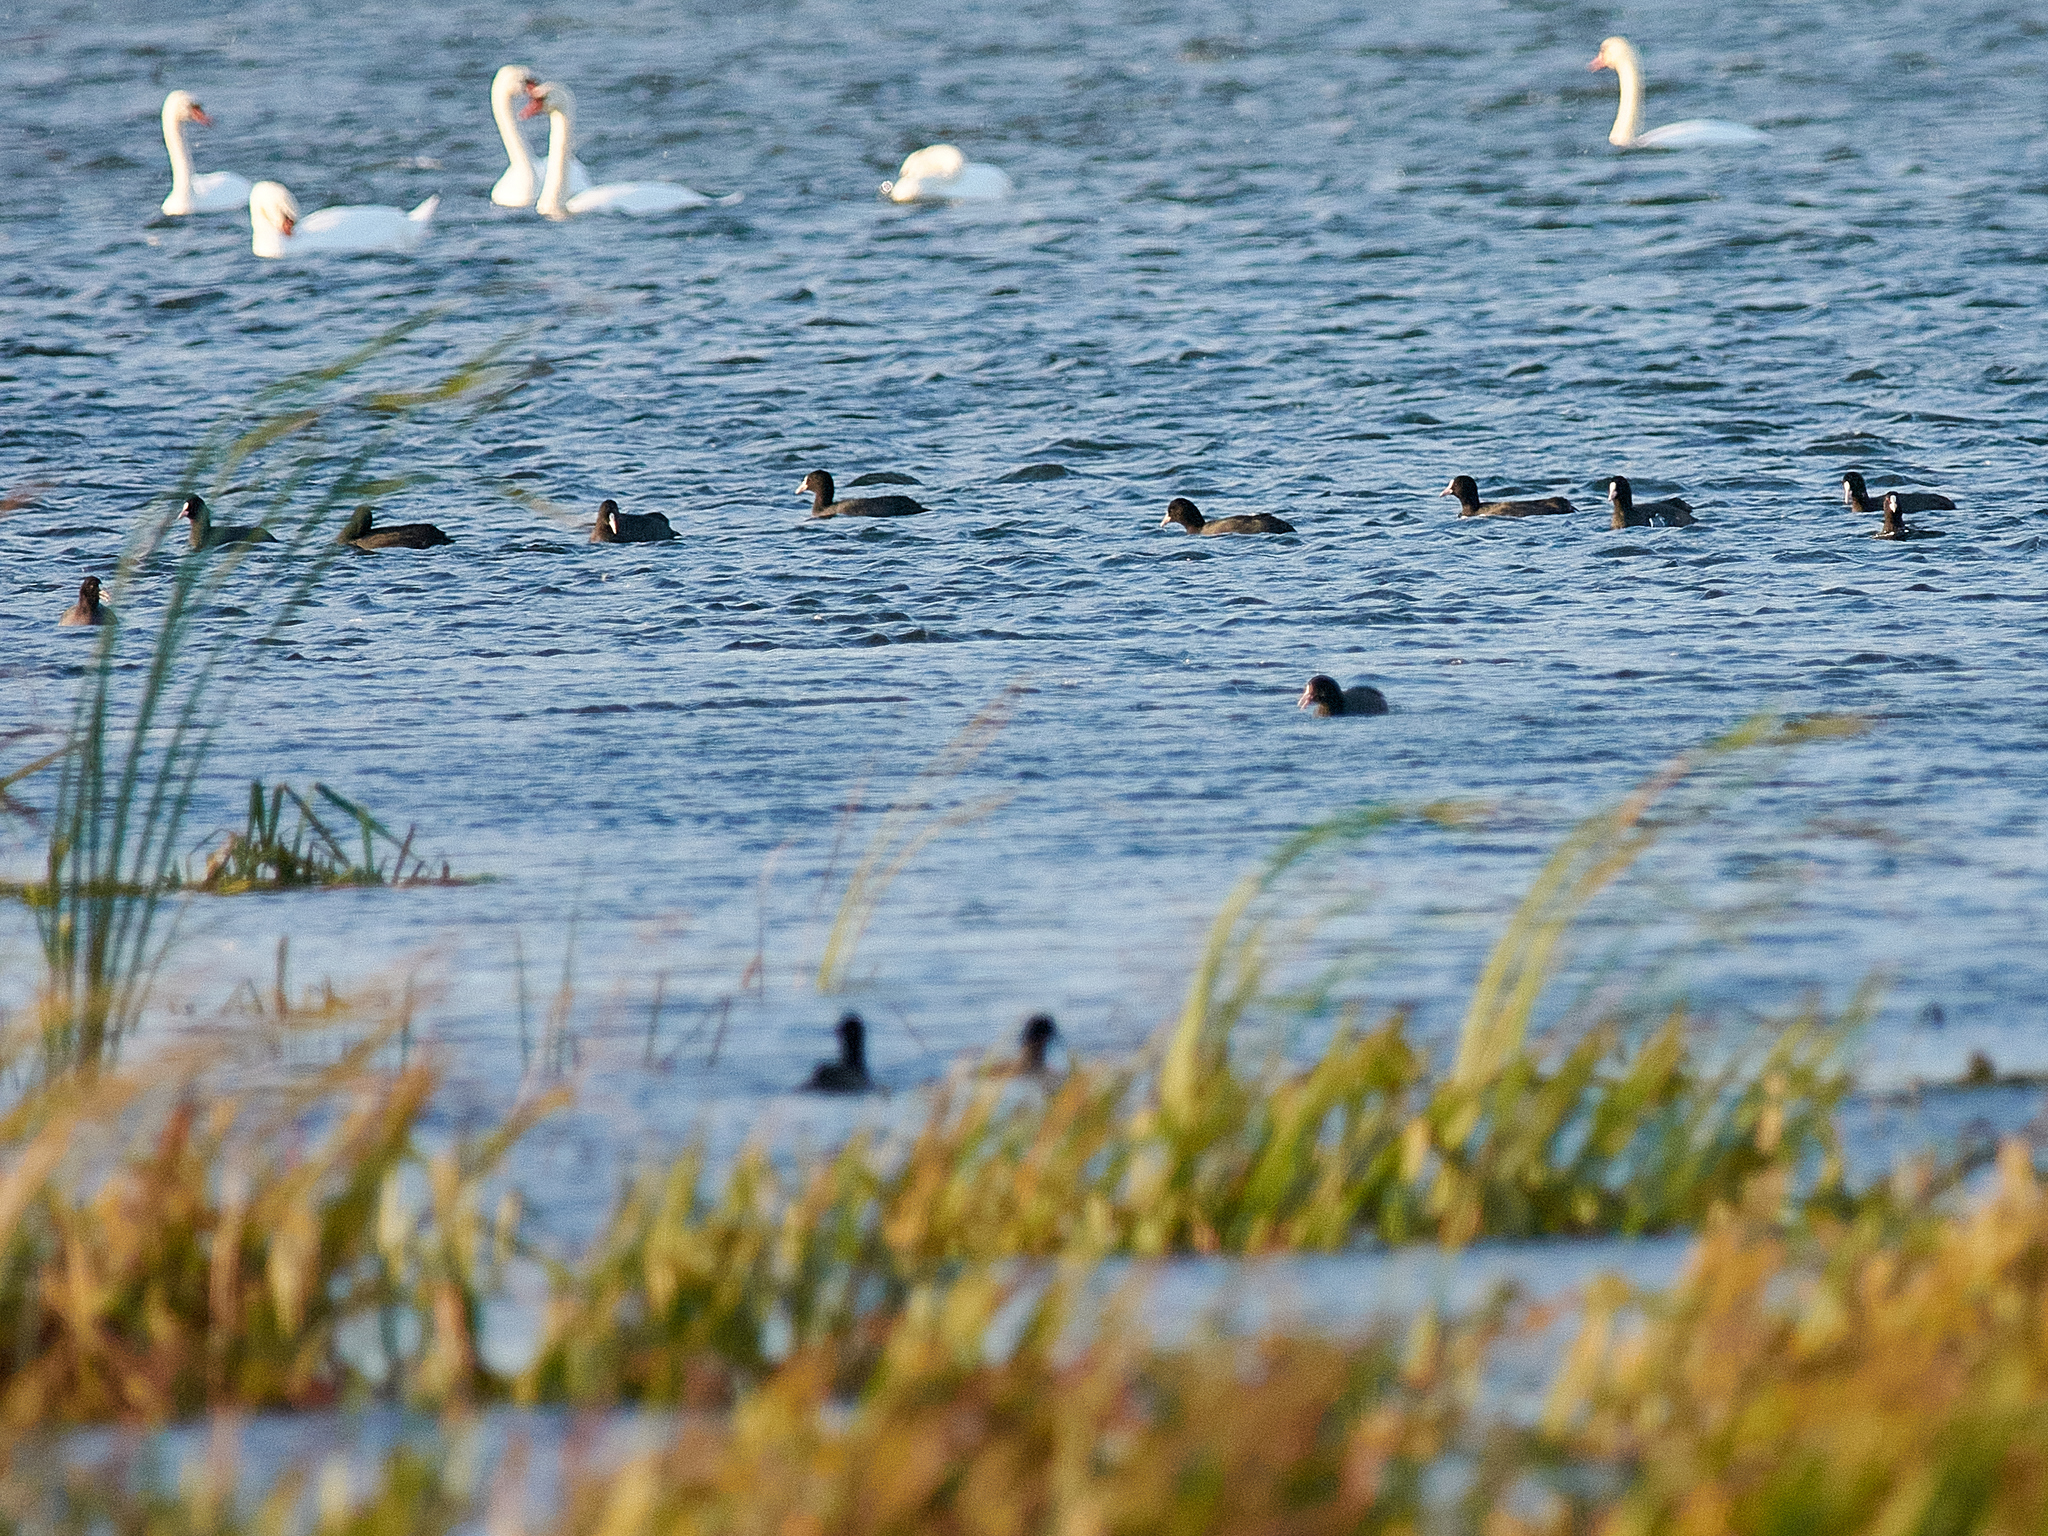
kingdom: Animalia
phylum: Chordata
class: Aves
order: Gruiformes
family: Rallidae
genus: Fulica
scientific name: Fulica atra
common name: Eurasian coot
